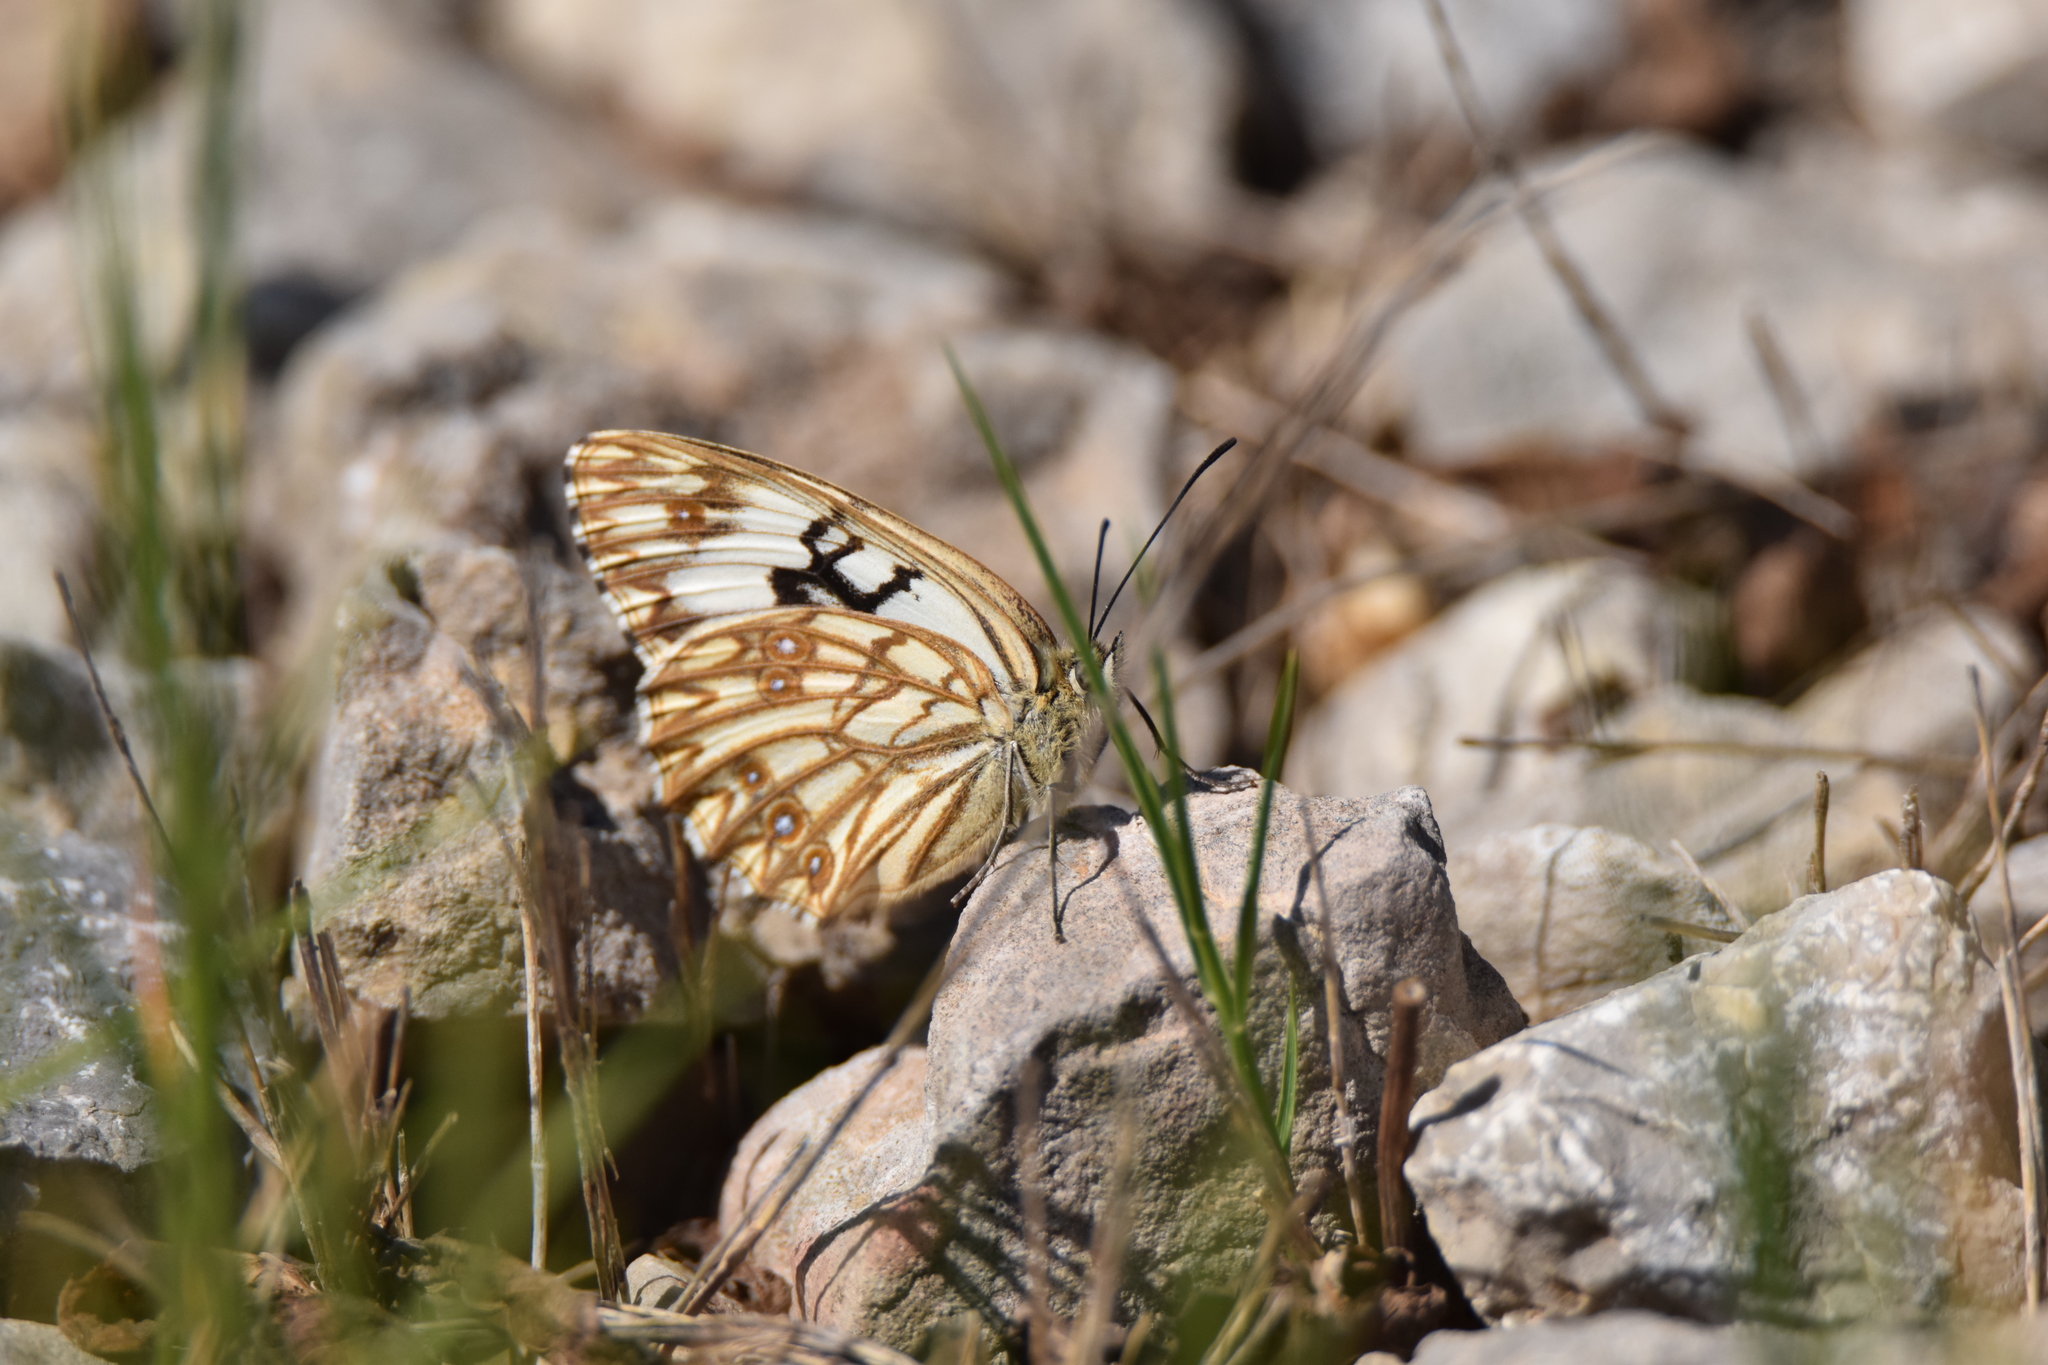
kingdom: Animalia
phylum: Arthropoda
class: Insecta
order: Lepidoptera
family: Nymphalidae
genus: Melanargia
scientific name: Melanargia occitanica
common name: Western marbled white
